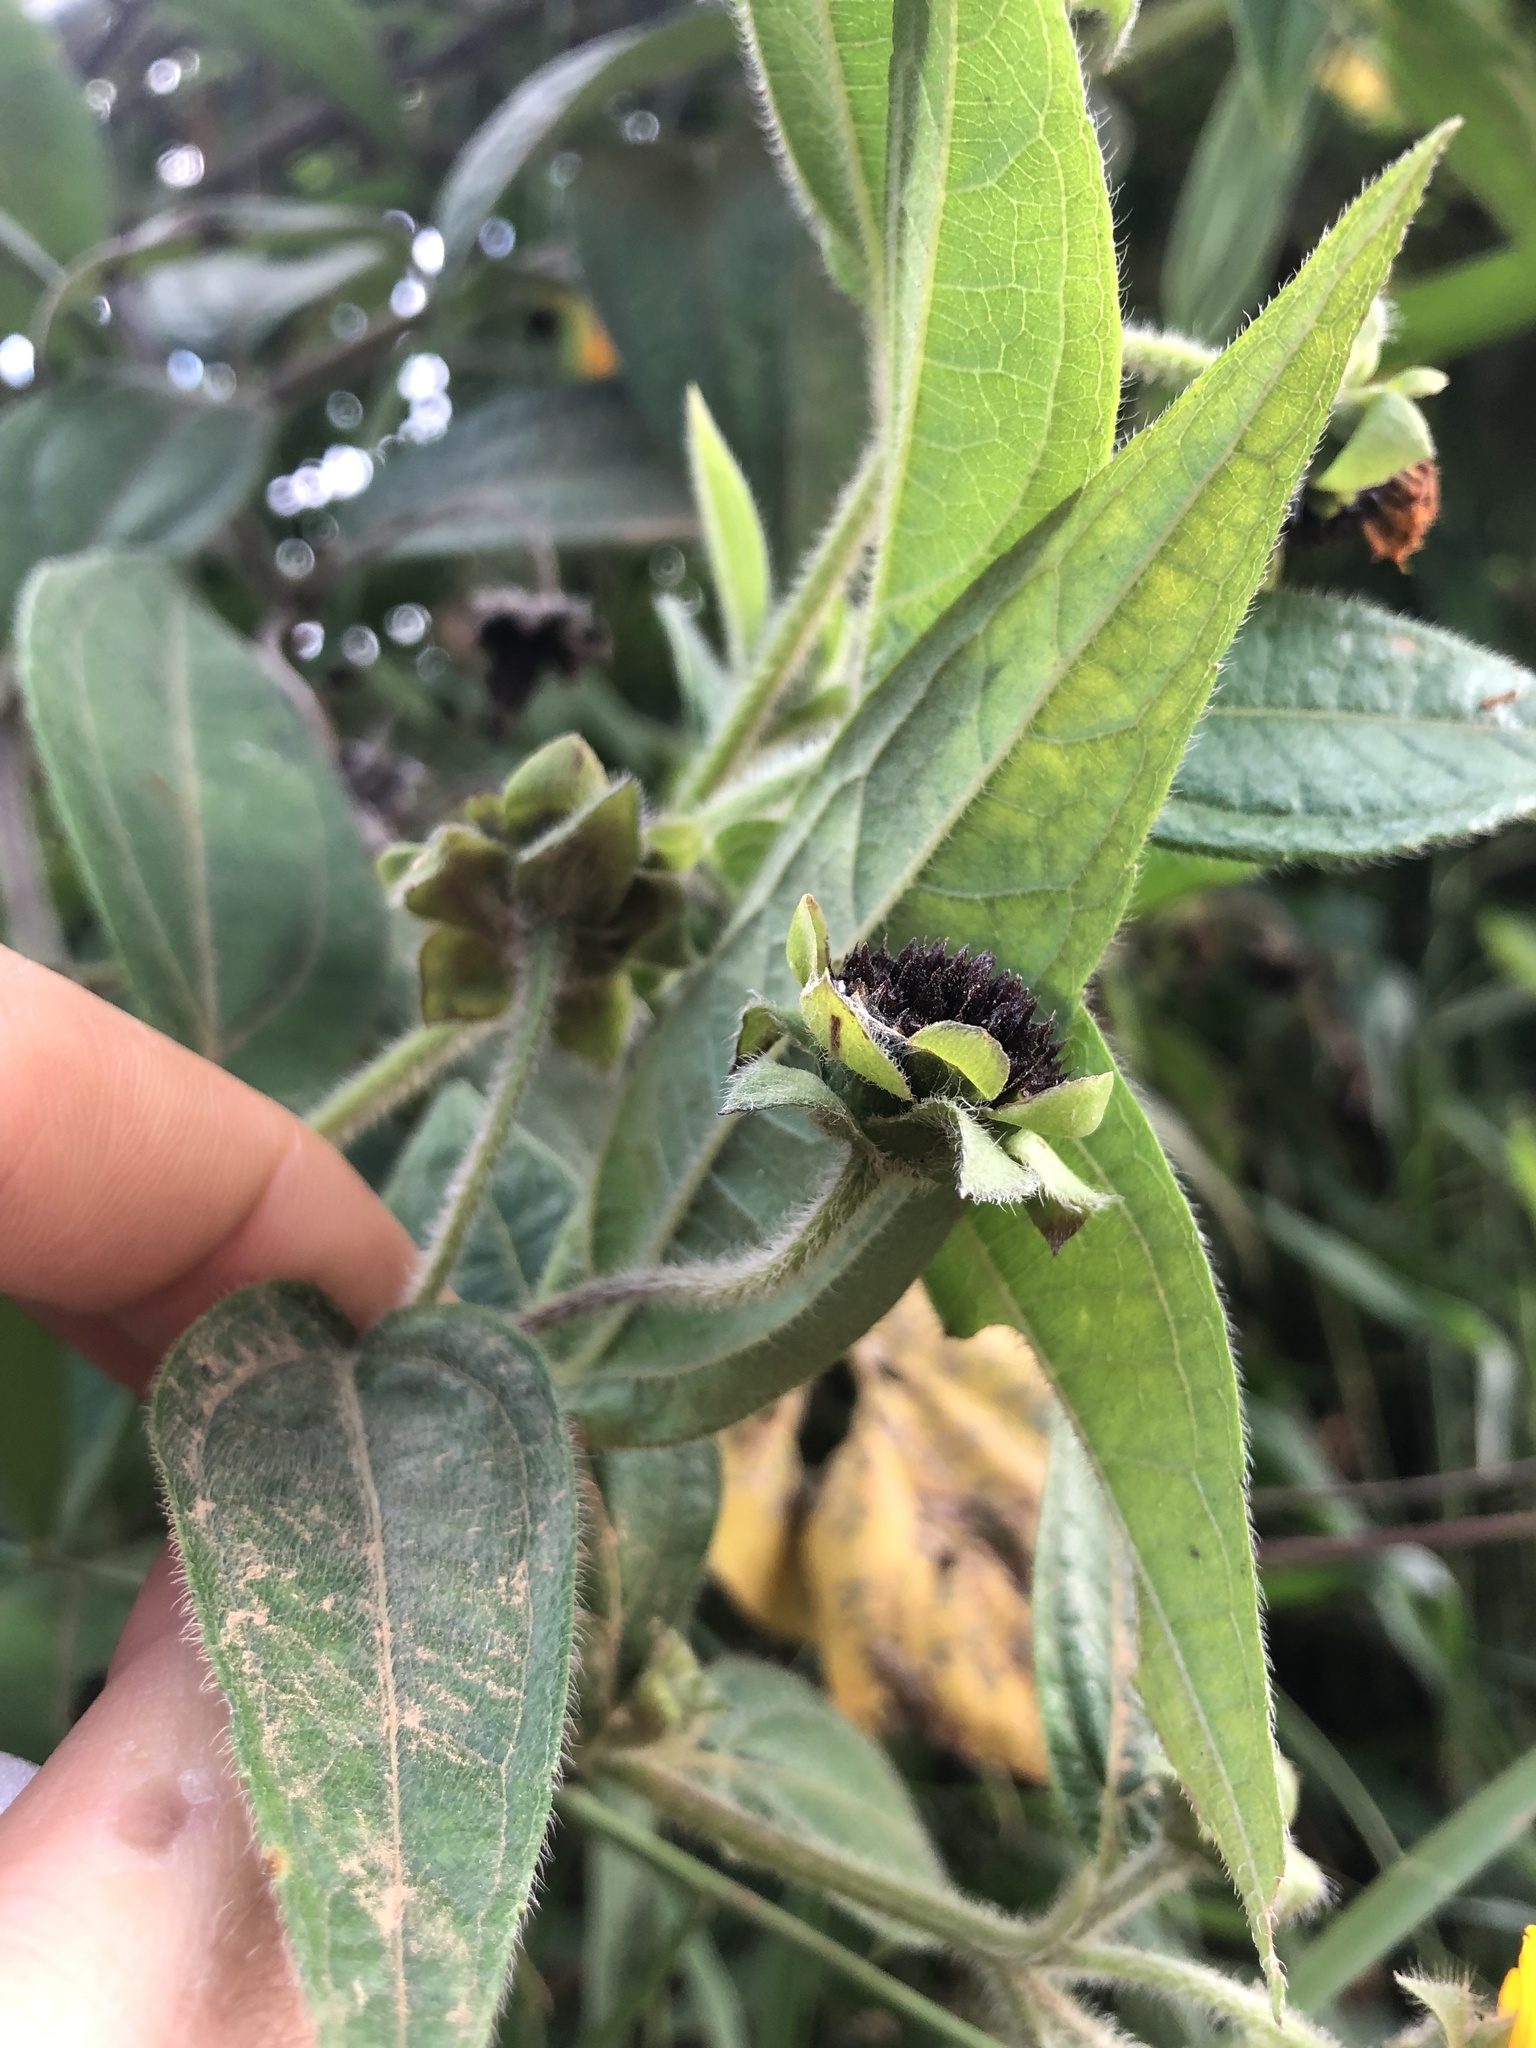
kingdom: Plantae
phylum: Tracheophyta
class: Magnoliopsida
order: Asterales
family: Asteraceae
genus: Elaphandra
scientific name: Elaphandra quinquenervis
